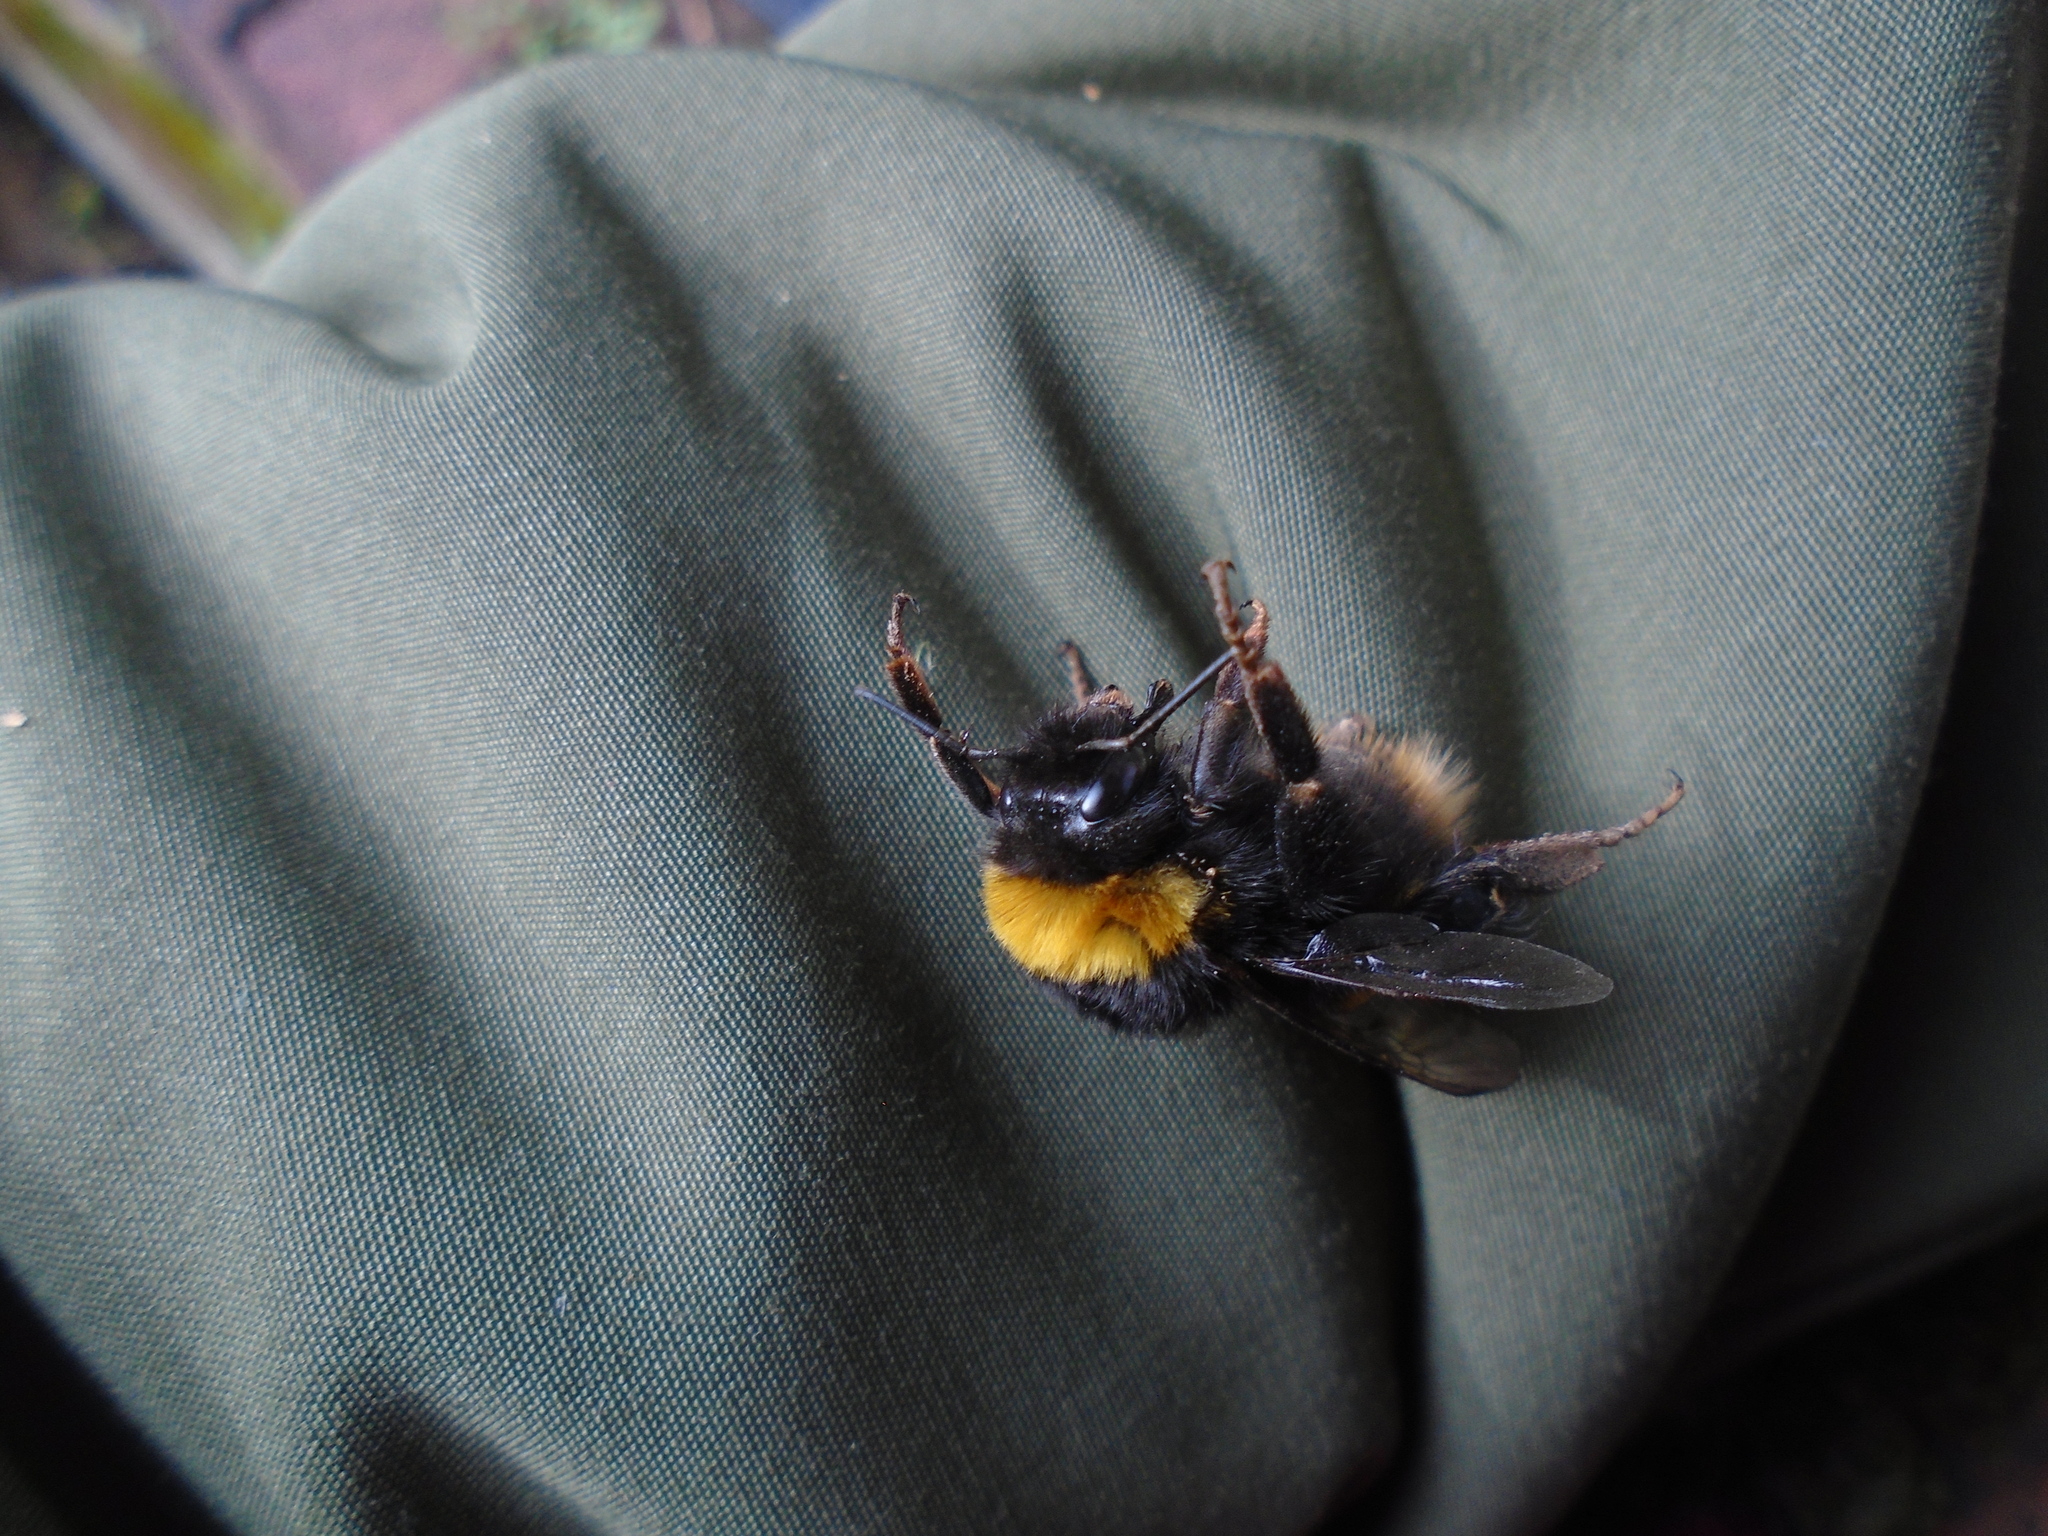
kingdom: Animalia
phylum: Arthropoda
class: Insecta
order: Hymenoptera
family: Apidae
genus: Bombus
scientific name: Bombus terrestris
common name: Buff-tailed bumblebee
